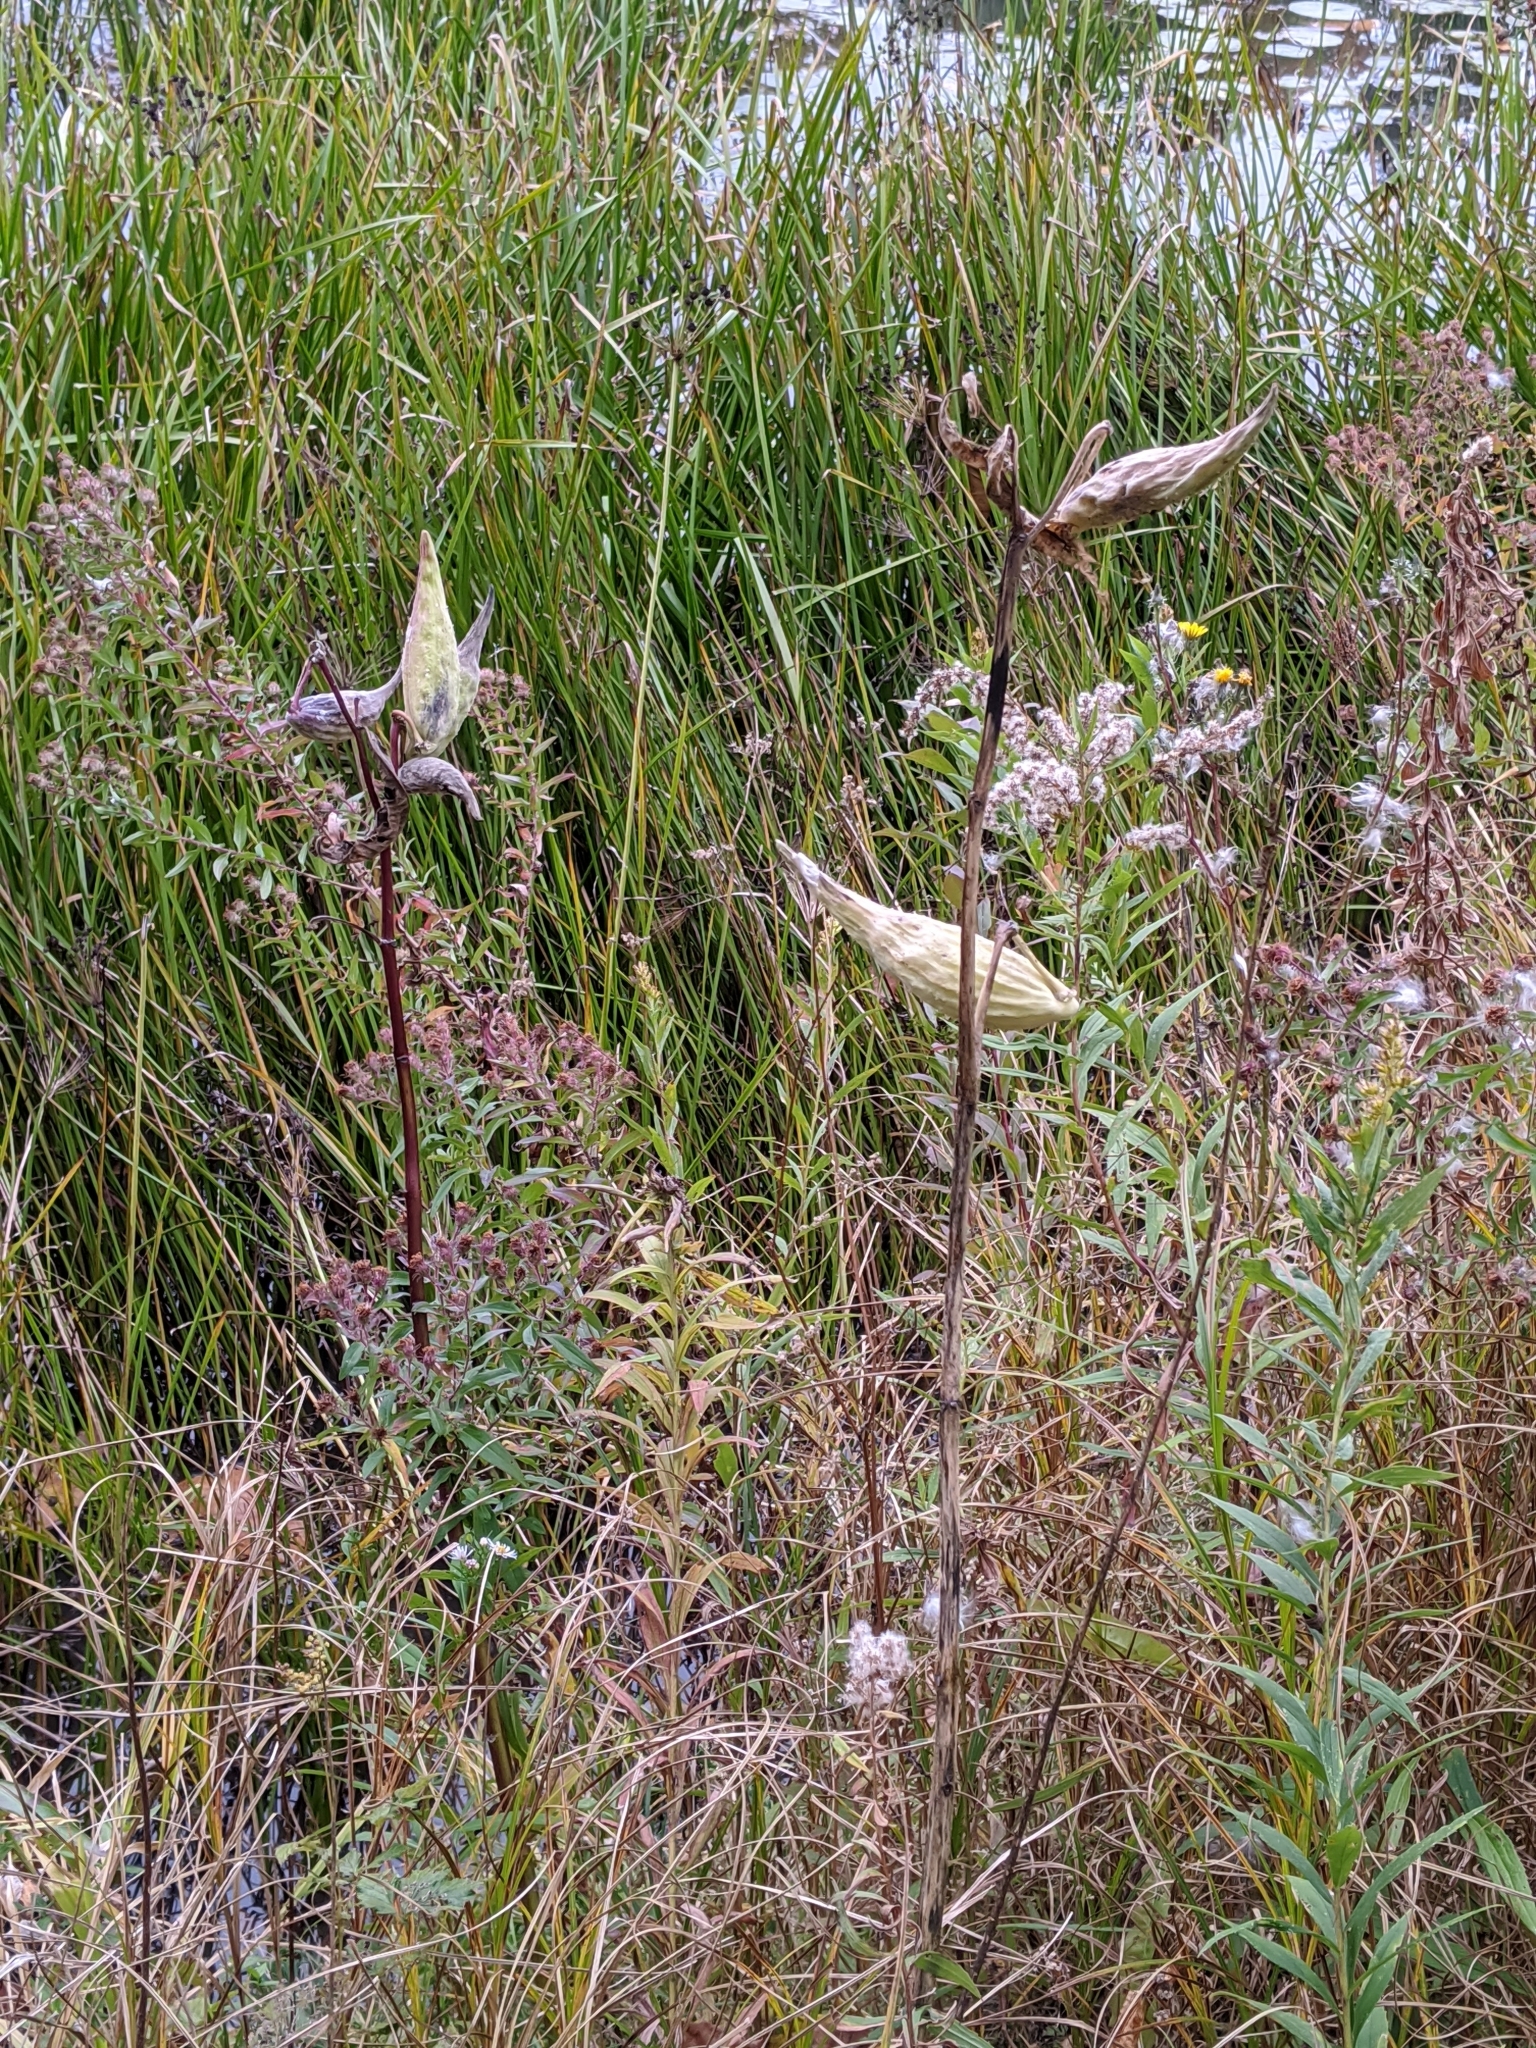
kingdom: Plantae
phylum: Tracheophyta
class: Magnoliopsida
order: Gentianales
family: Apocynaceae
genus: Asclepias
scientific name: Asclepias syriaca
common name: Common milkweed
